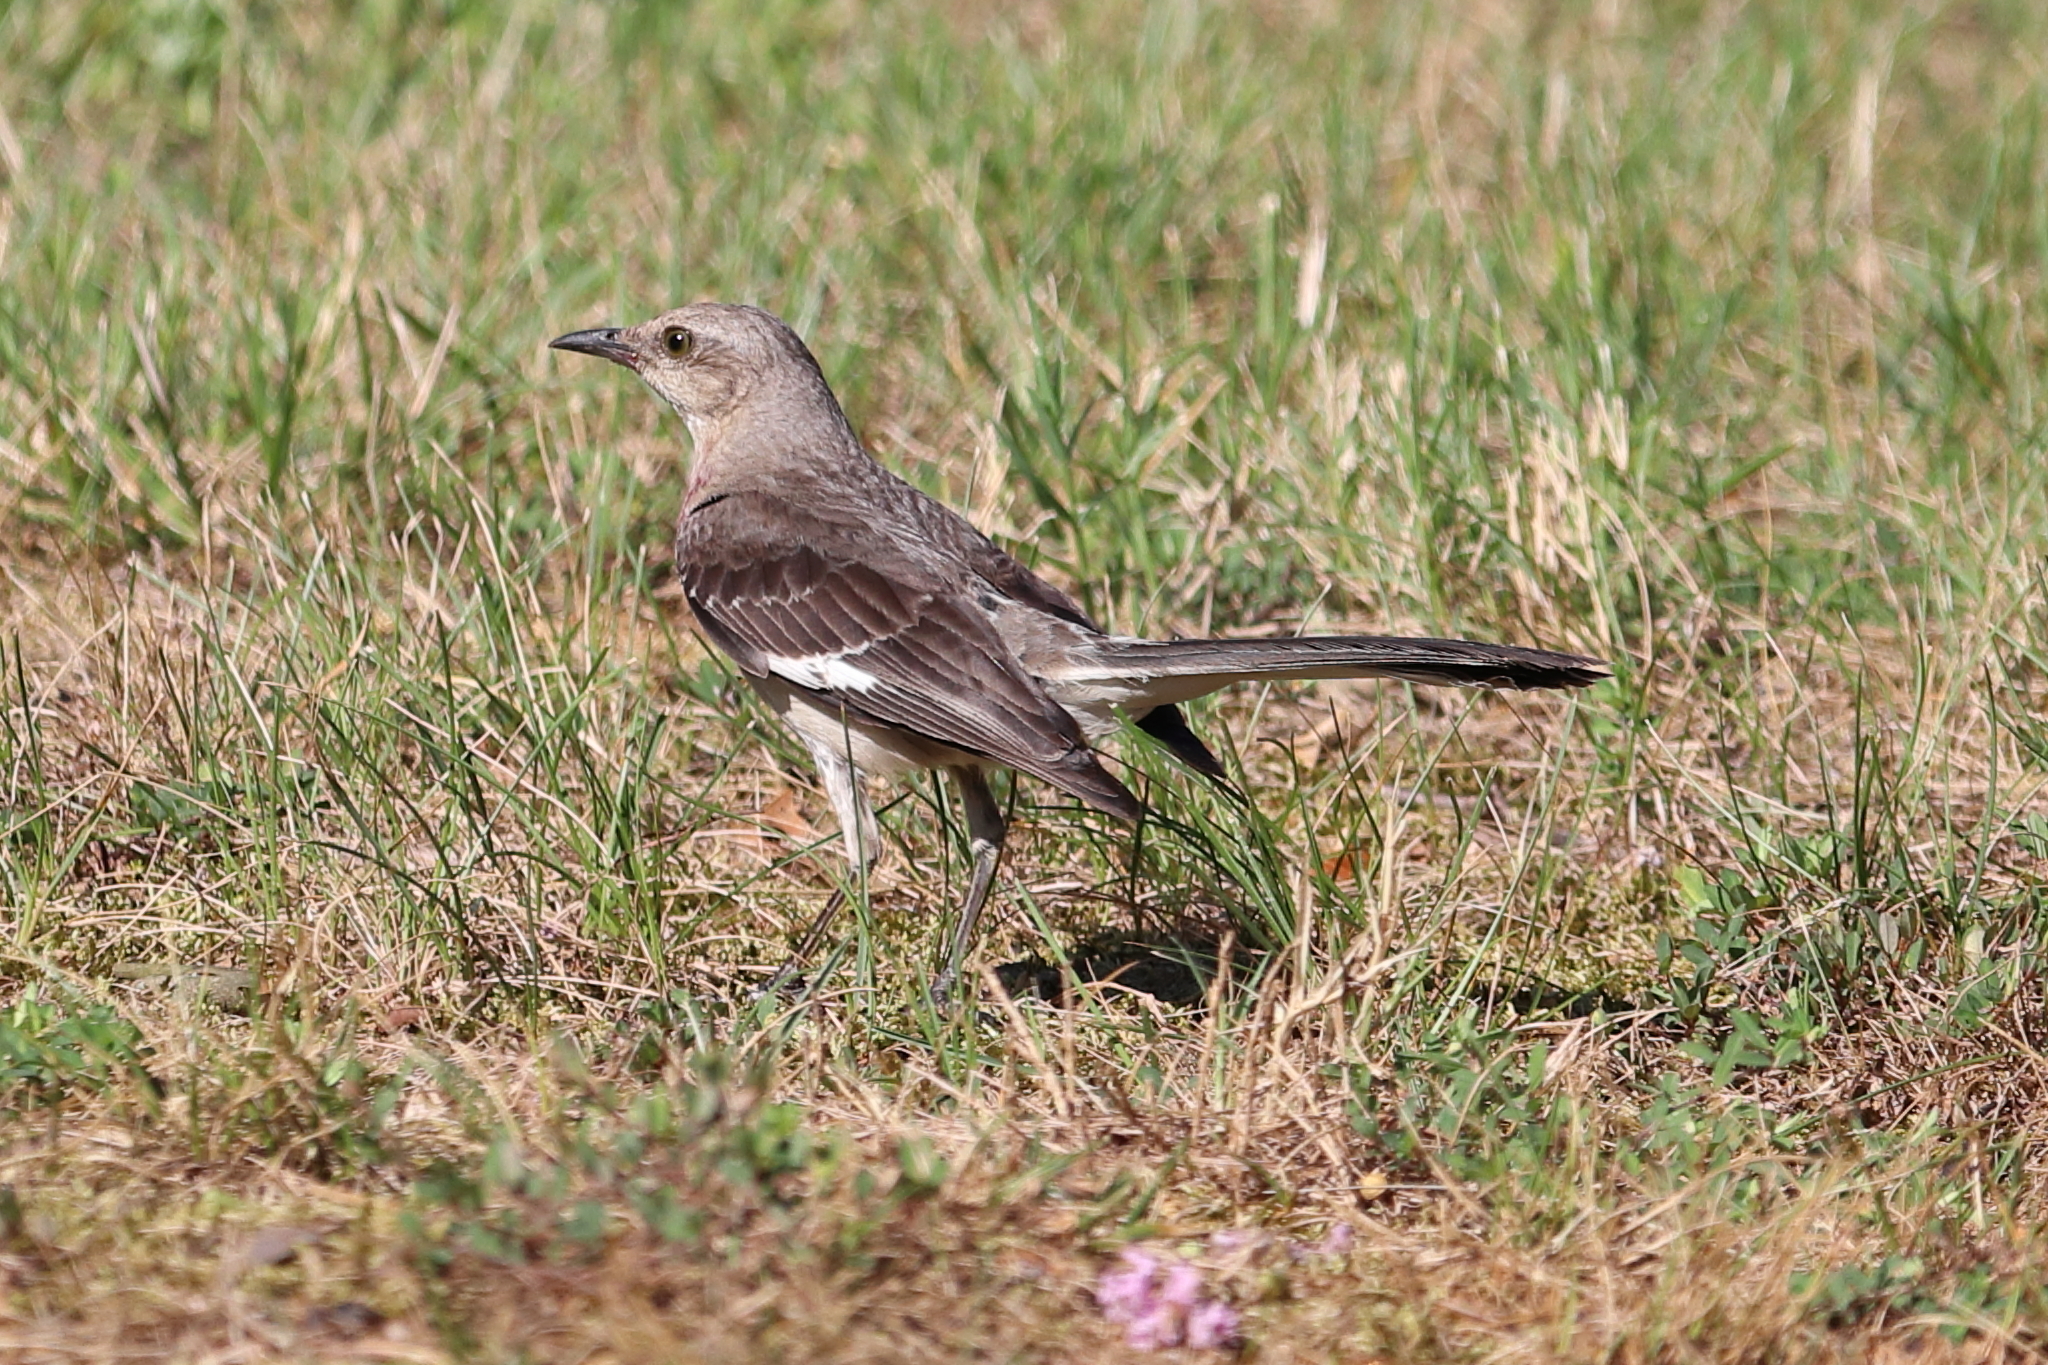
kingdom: Animalia
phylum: Chordata
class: Aves
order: Passeriformes
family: Mimidae
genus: Mimus
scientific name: Mimus polyglottos
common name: Northern mockingbird
